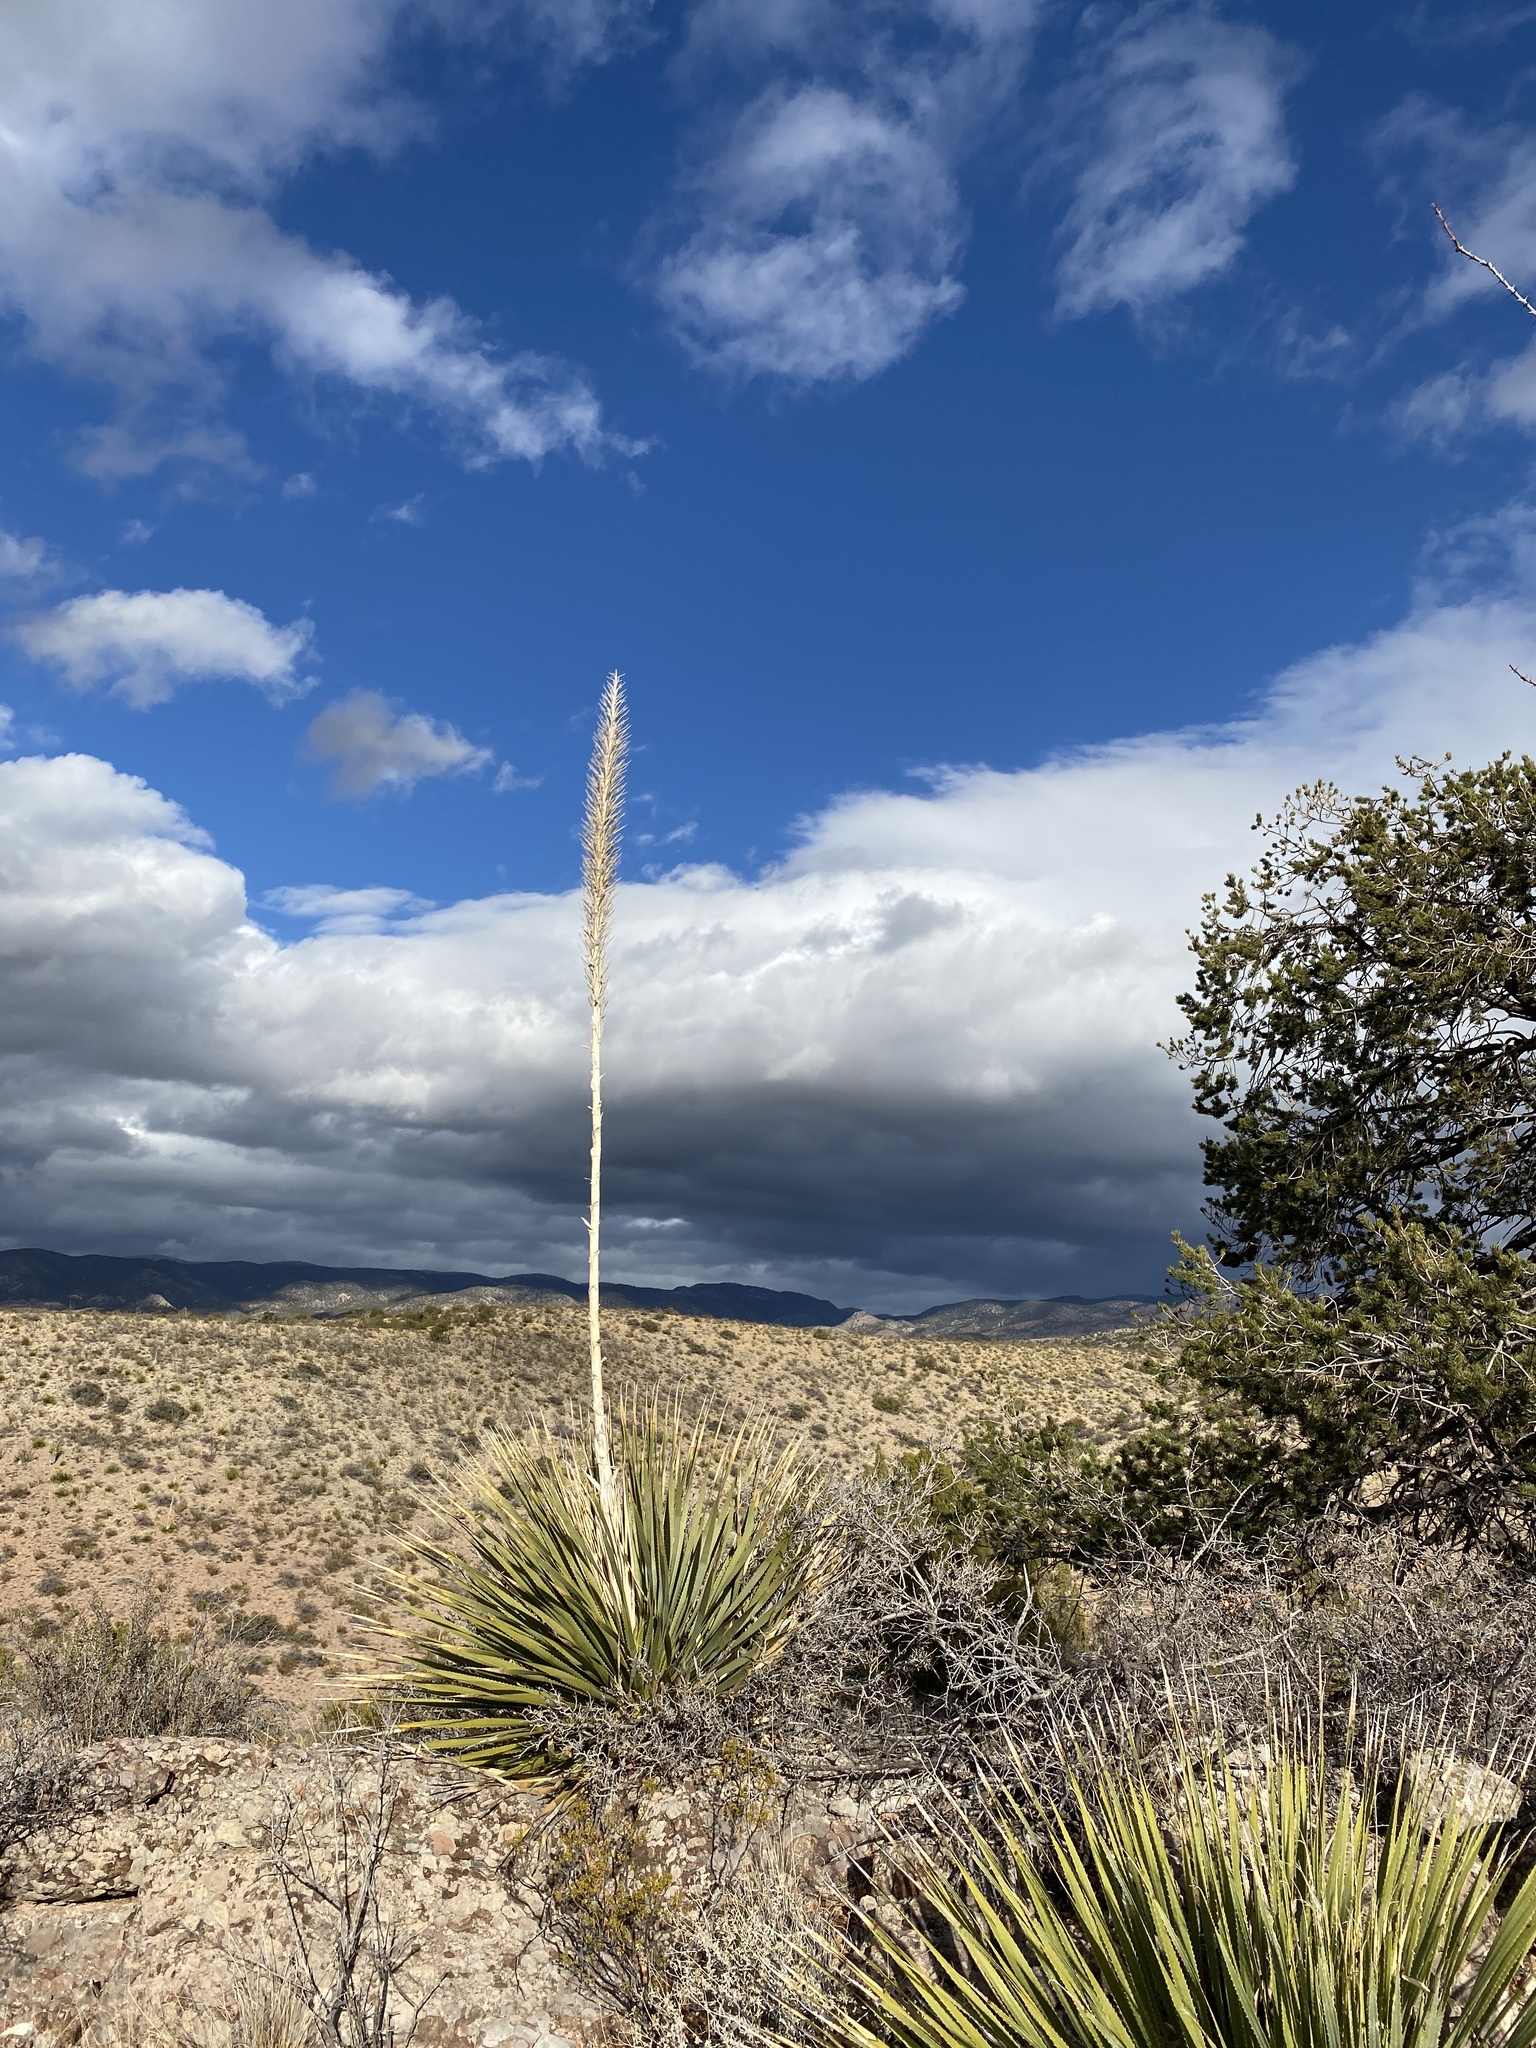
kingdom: Plantae
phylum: Tracheophyta
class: Liliopsida
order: Asparagales
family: Asparagaceae
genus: Dasylirion
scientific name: Dasylirion wheeleri
